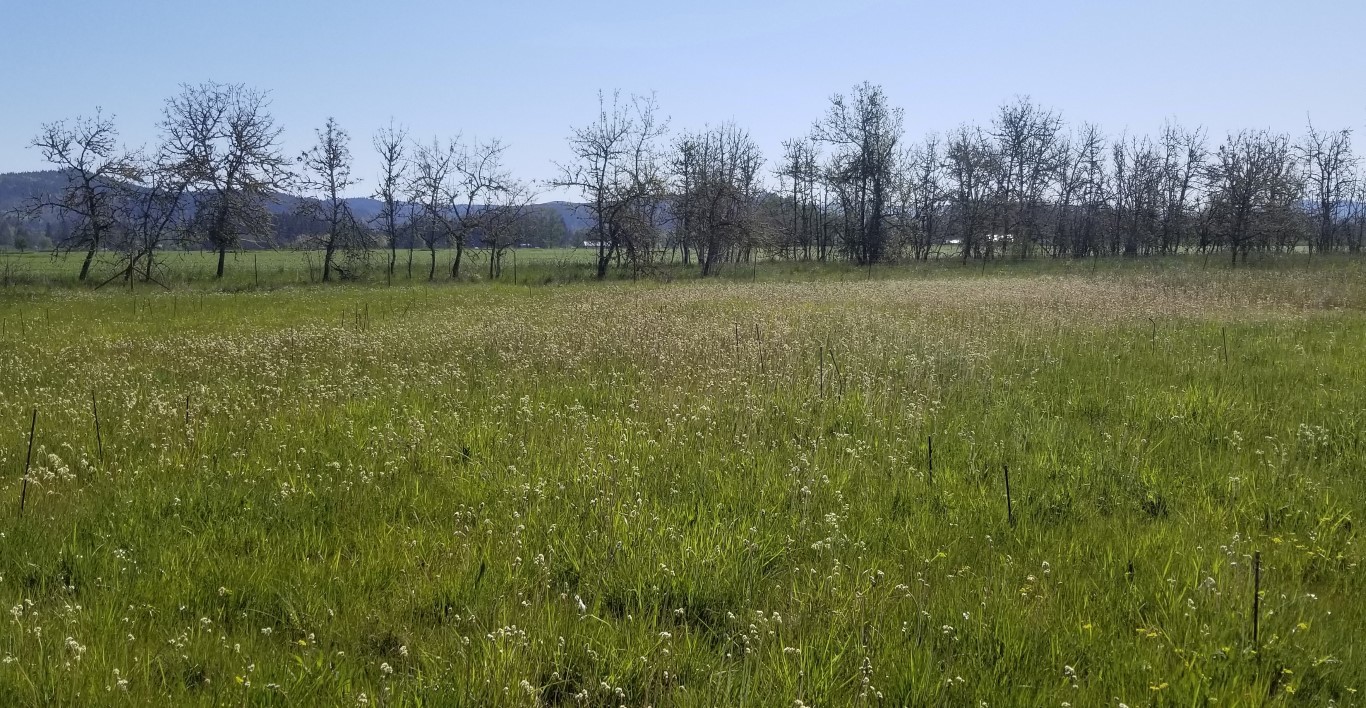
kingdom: Plantae
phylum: Tracheophyta
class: Magnoliopsida
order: Saxifragales
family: Saxifragaceae
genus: Micranthes
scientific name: Micranthes oregana
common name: Bog saxifrage
